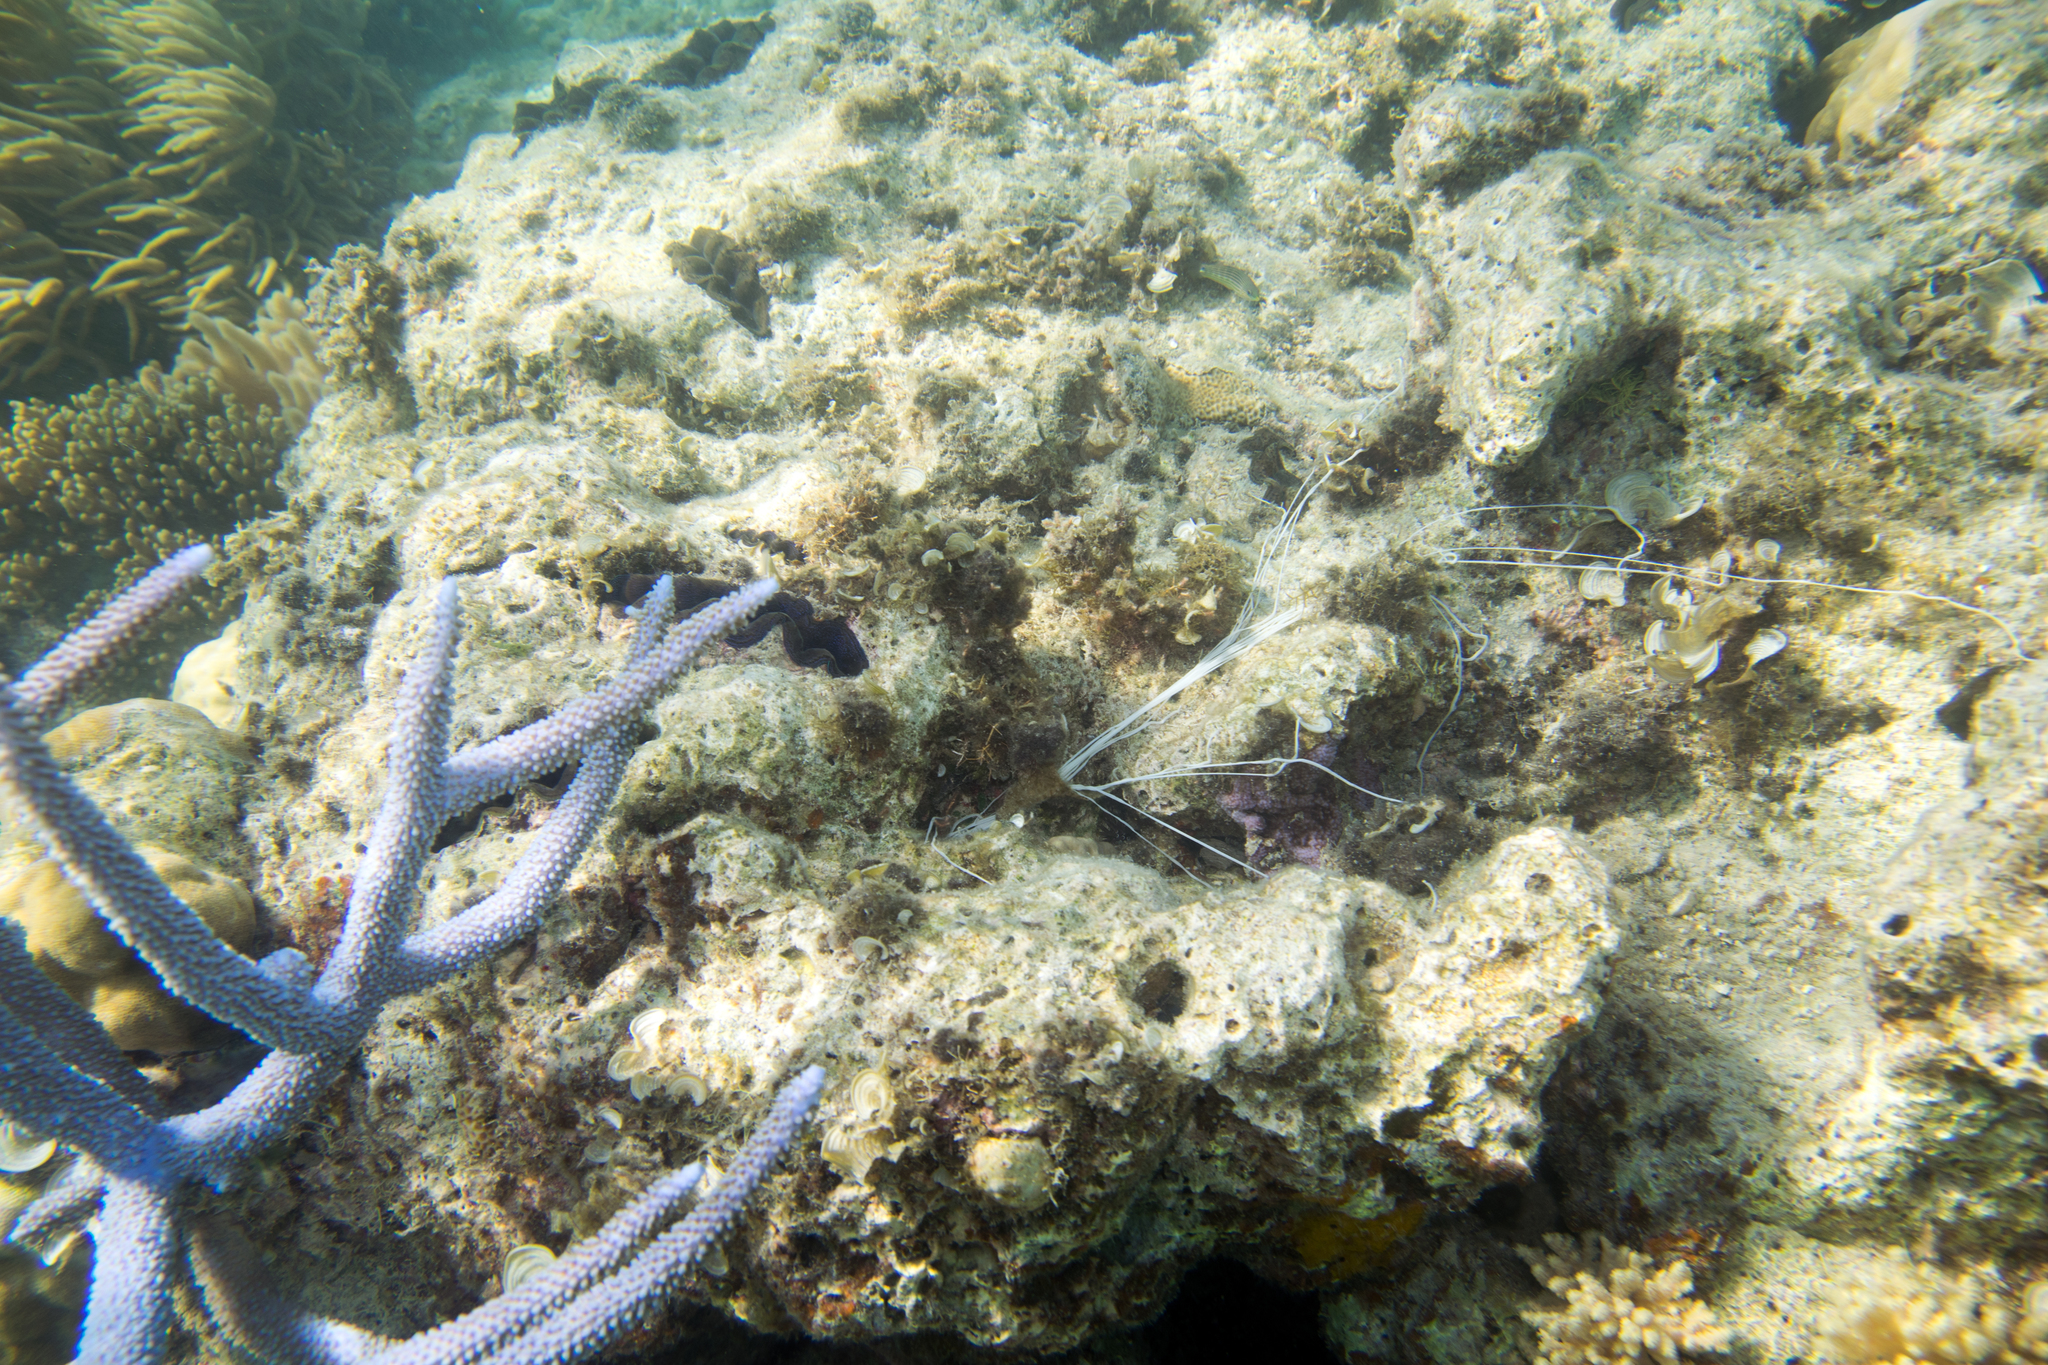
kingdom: Animalia
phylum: Annelida
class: Polychaeta
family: Terebellidae
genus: Reteterebella
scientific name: Reteterebella lirrf
